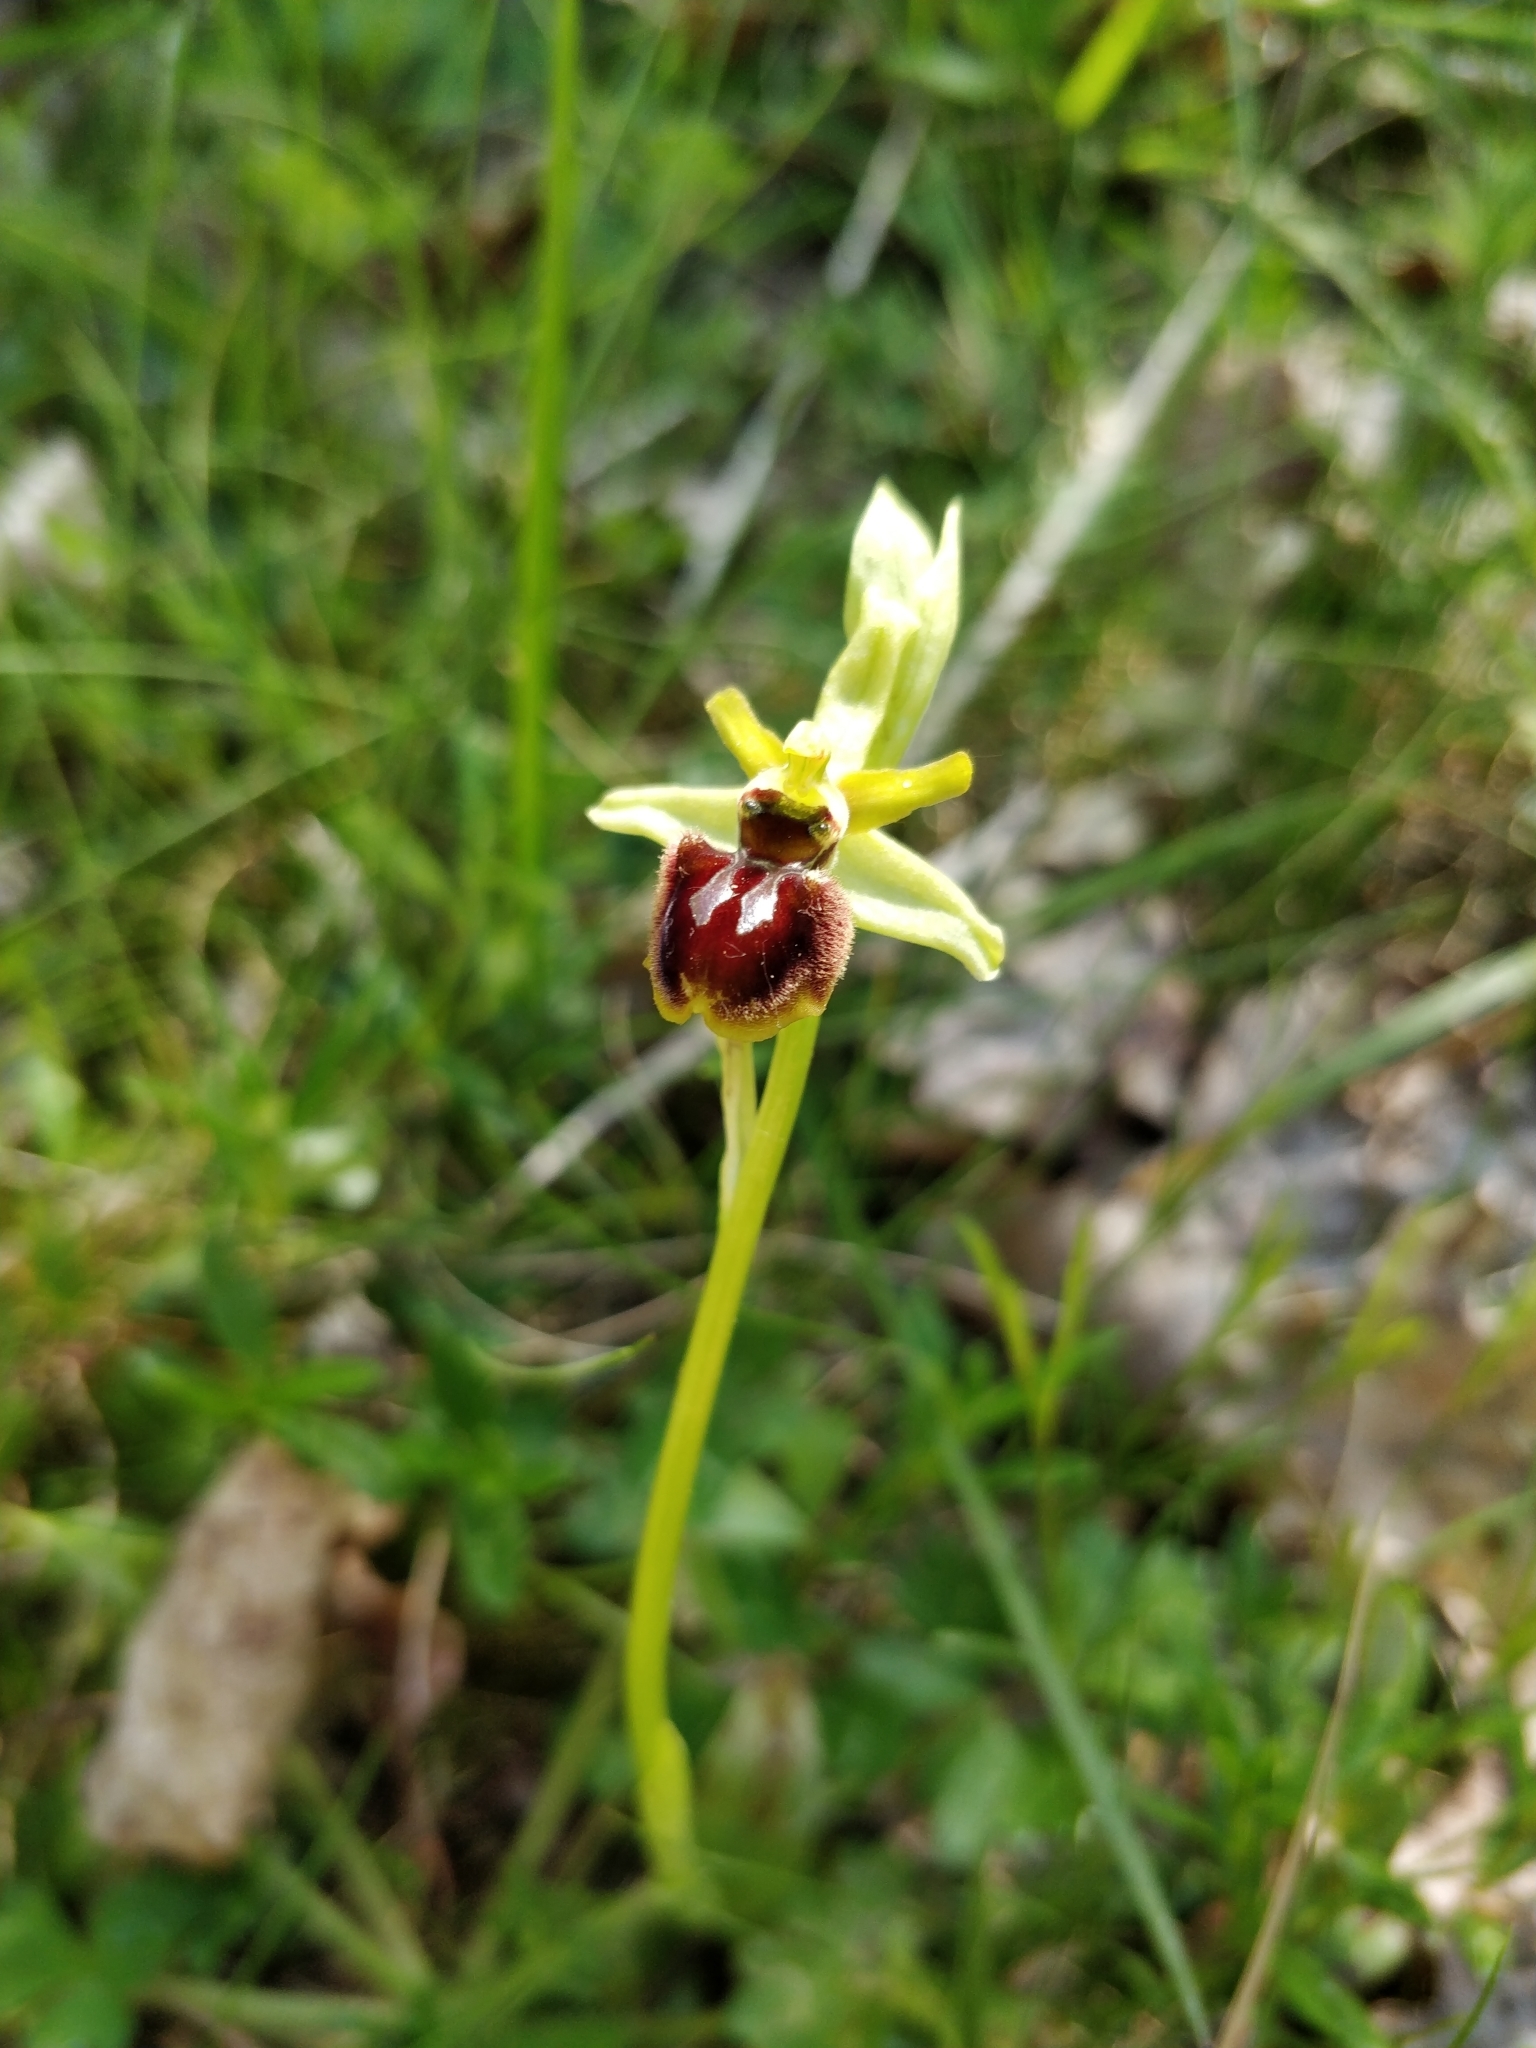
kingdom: Plantae
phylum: Tracheophyta
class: Liliopsida
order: Asparagales
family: Orchidaceae
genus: Ophrys
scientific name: Ophrys sphegodes
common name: Early spider-orchid
